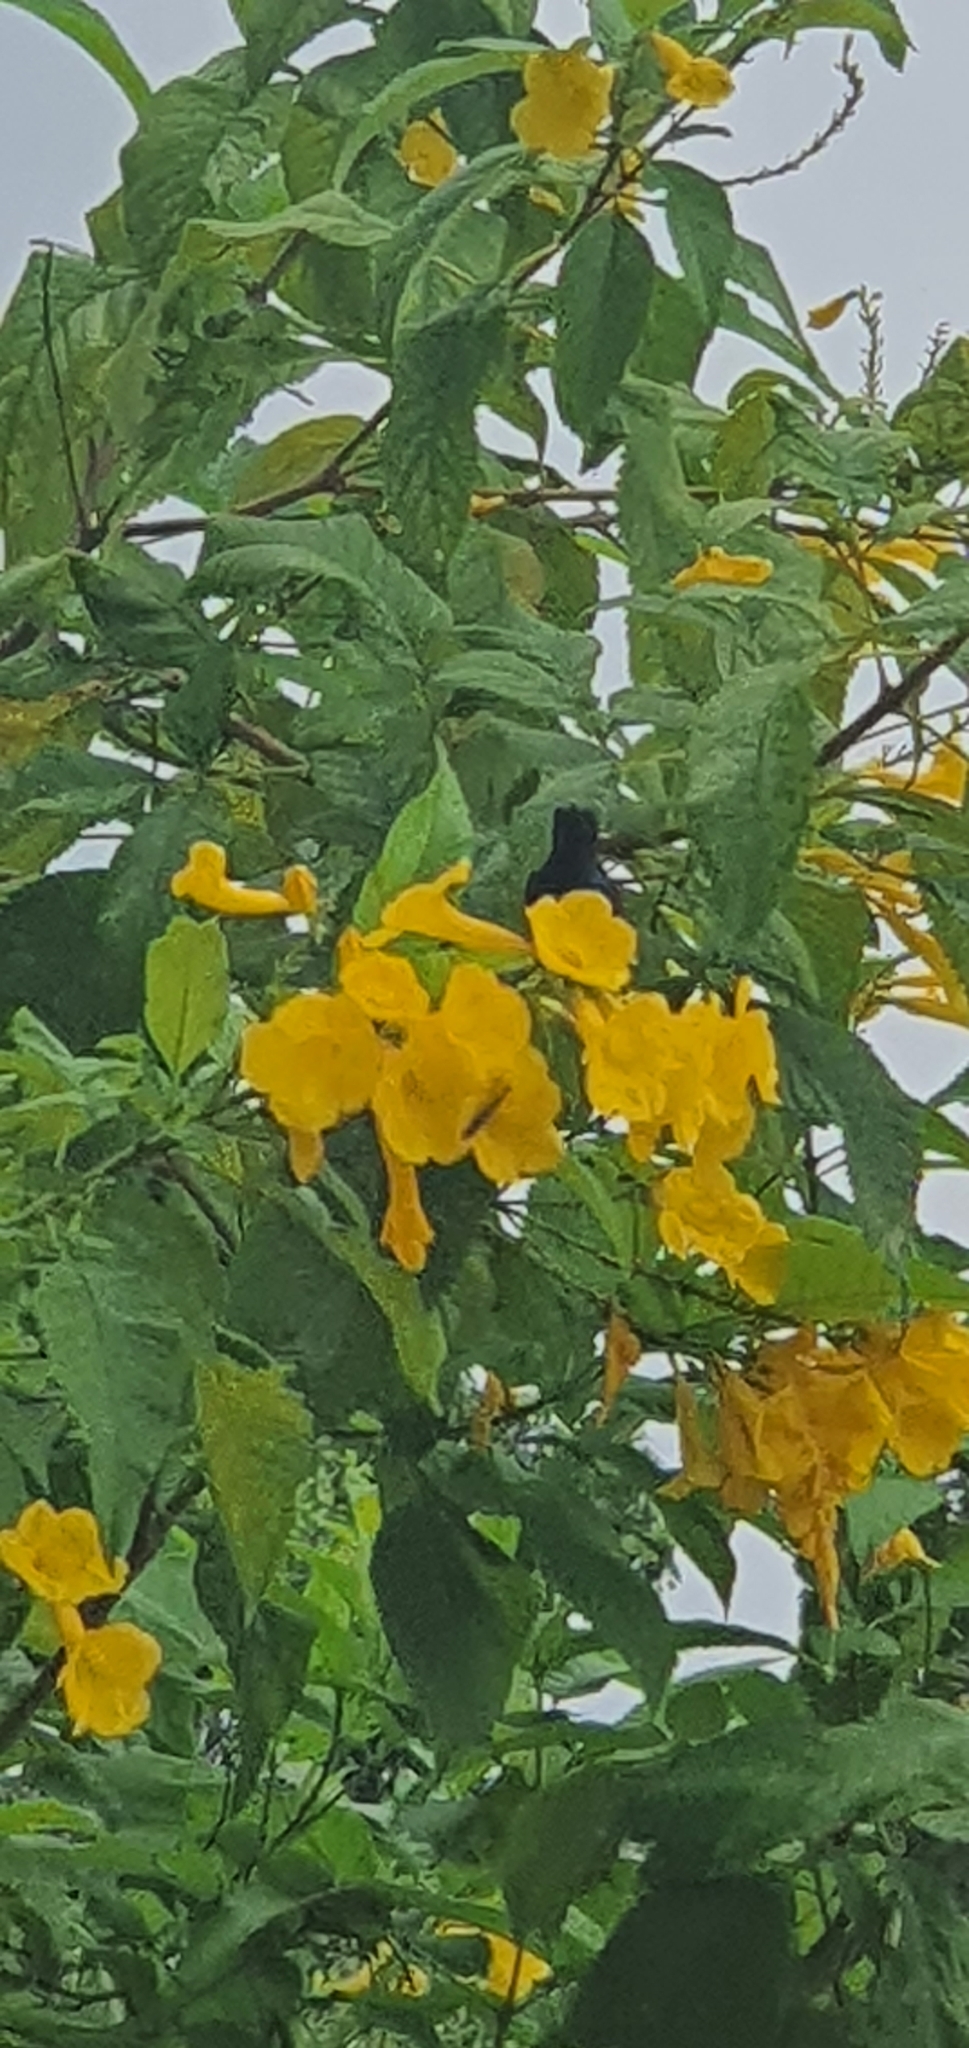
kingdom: Animalia
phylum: Chordata
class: Aves
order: Passeriformes
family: Nectariniidae
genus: Cinnyris
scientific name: Cinnyris asiaticus
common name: Purple sunbird
